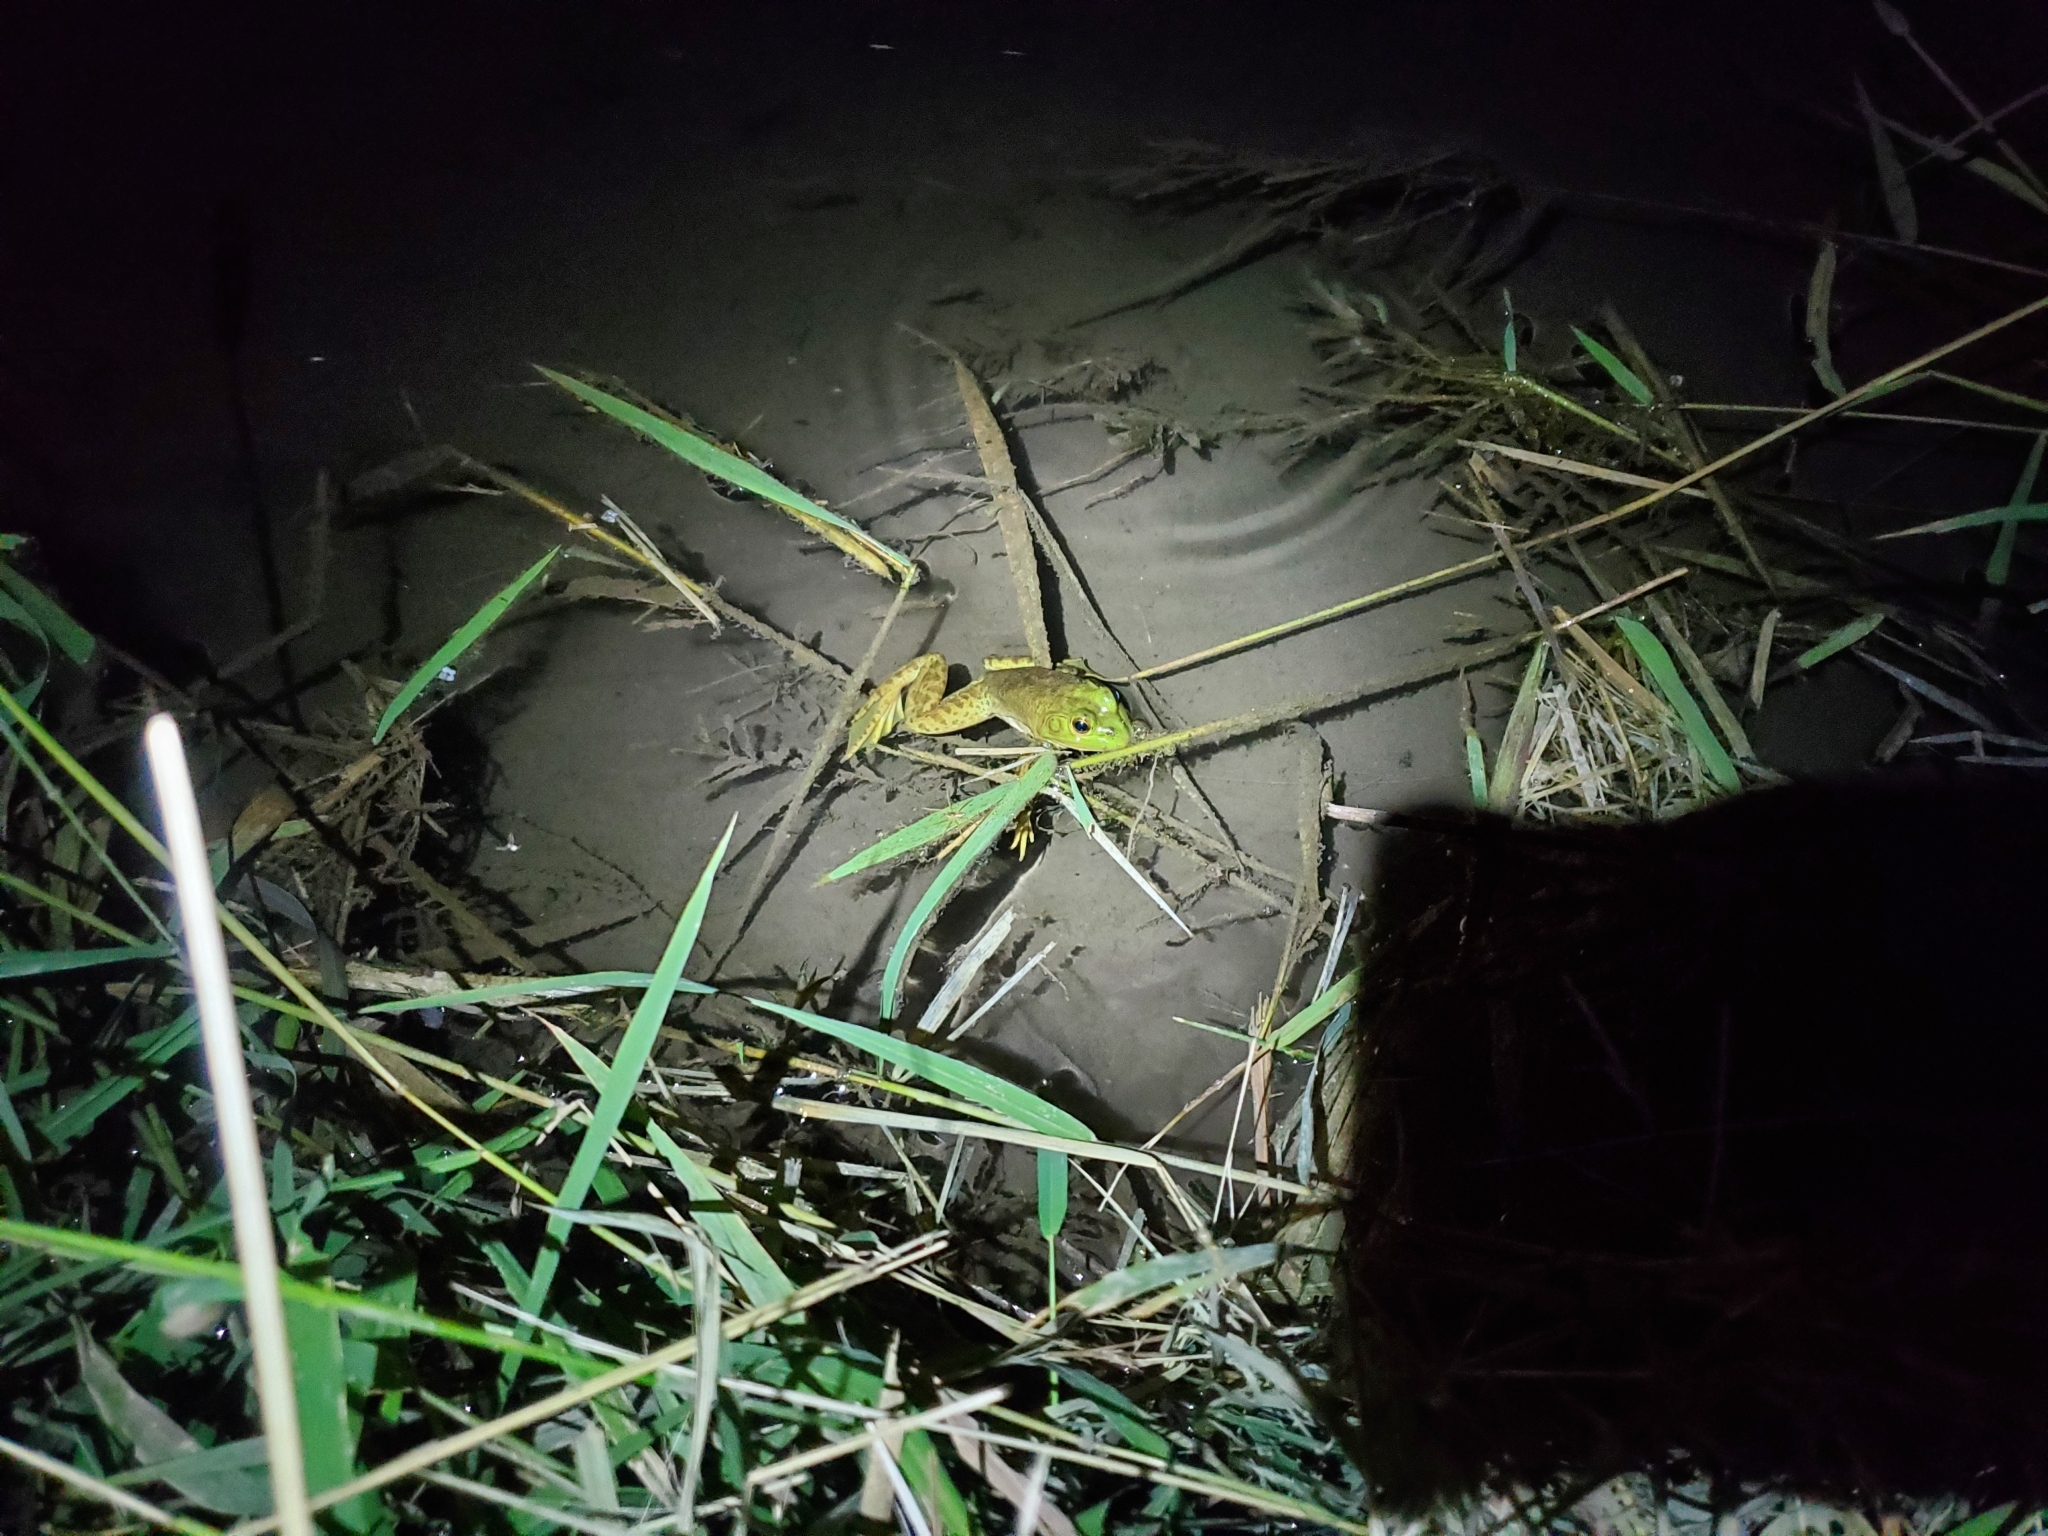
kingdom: Animalia
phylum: Chordata
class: Amphibia
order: Anura
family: Ranidae
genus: Lithobates
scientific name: Lithobates catesbeianus
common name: American bullfrog
